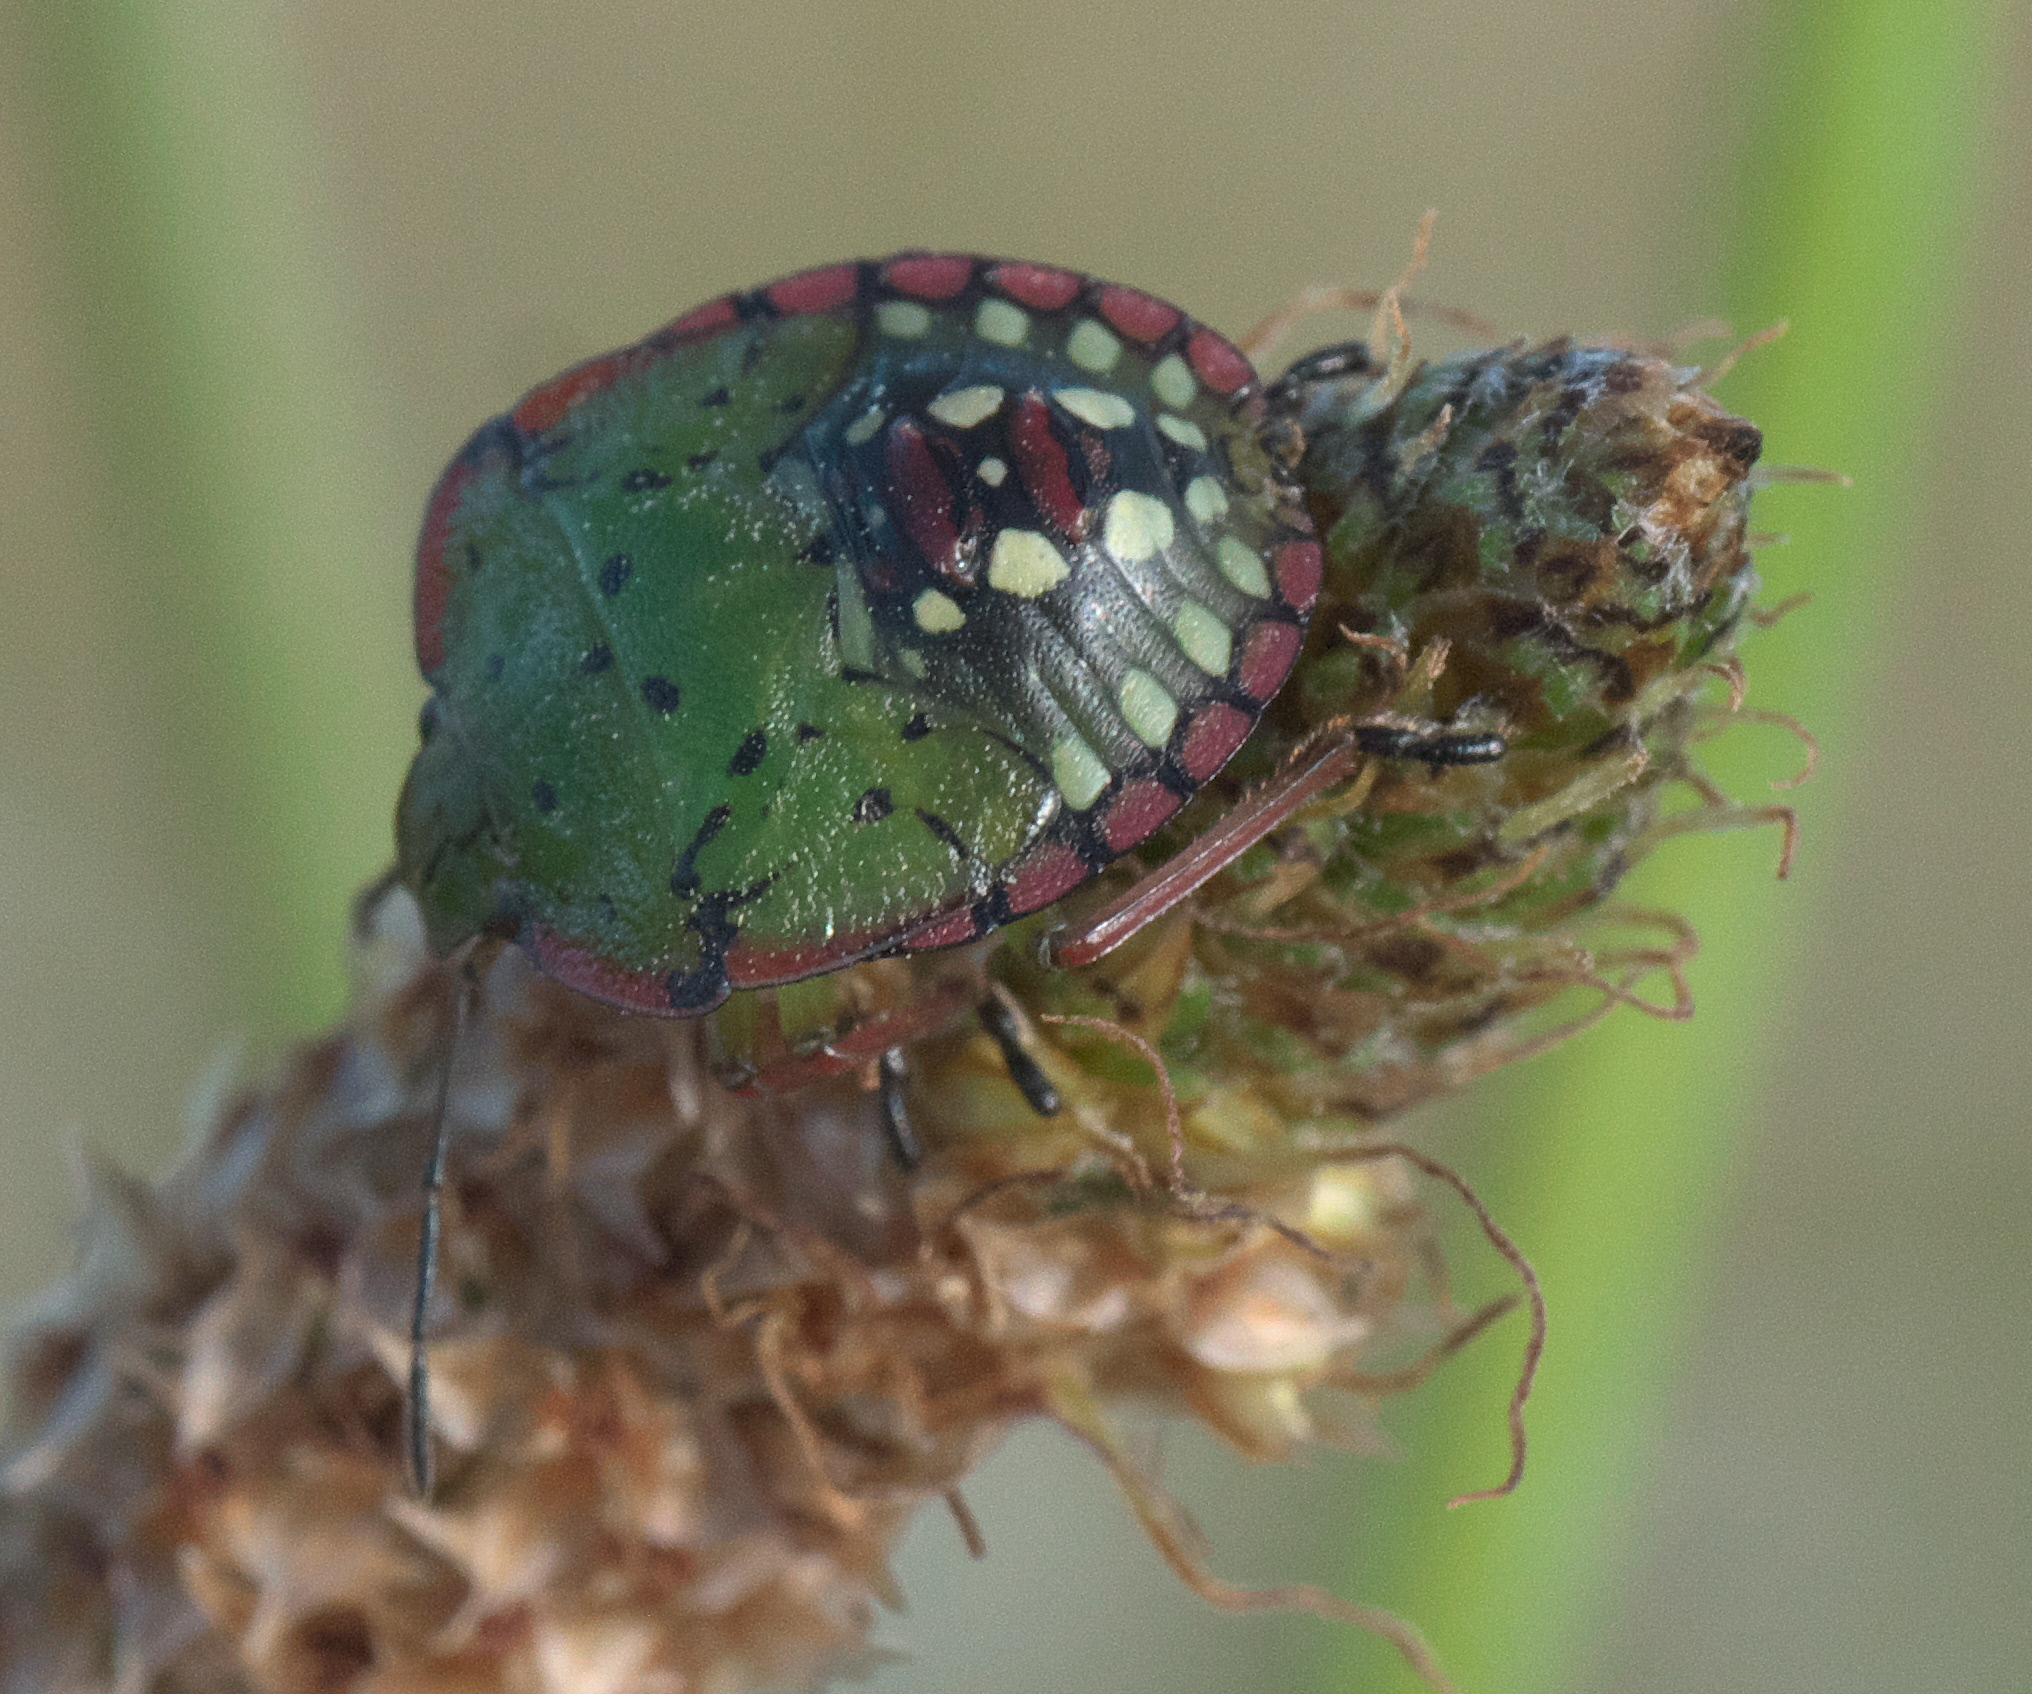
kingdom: Animalia
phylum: Arthropoda
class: Insecta
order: Hemiptera
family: Pentatomidae
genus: Nezara
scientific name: Nezara viridula
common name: Southern green stink bug
